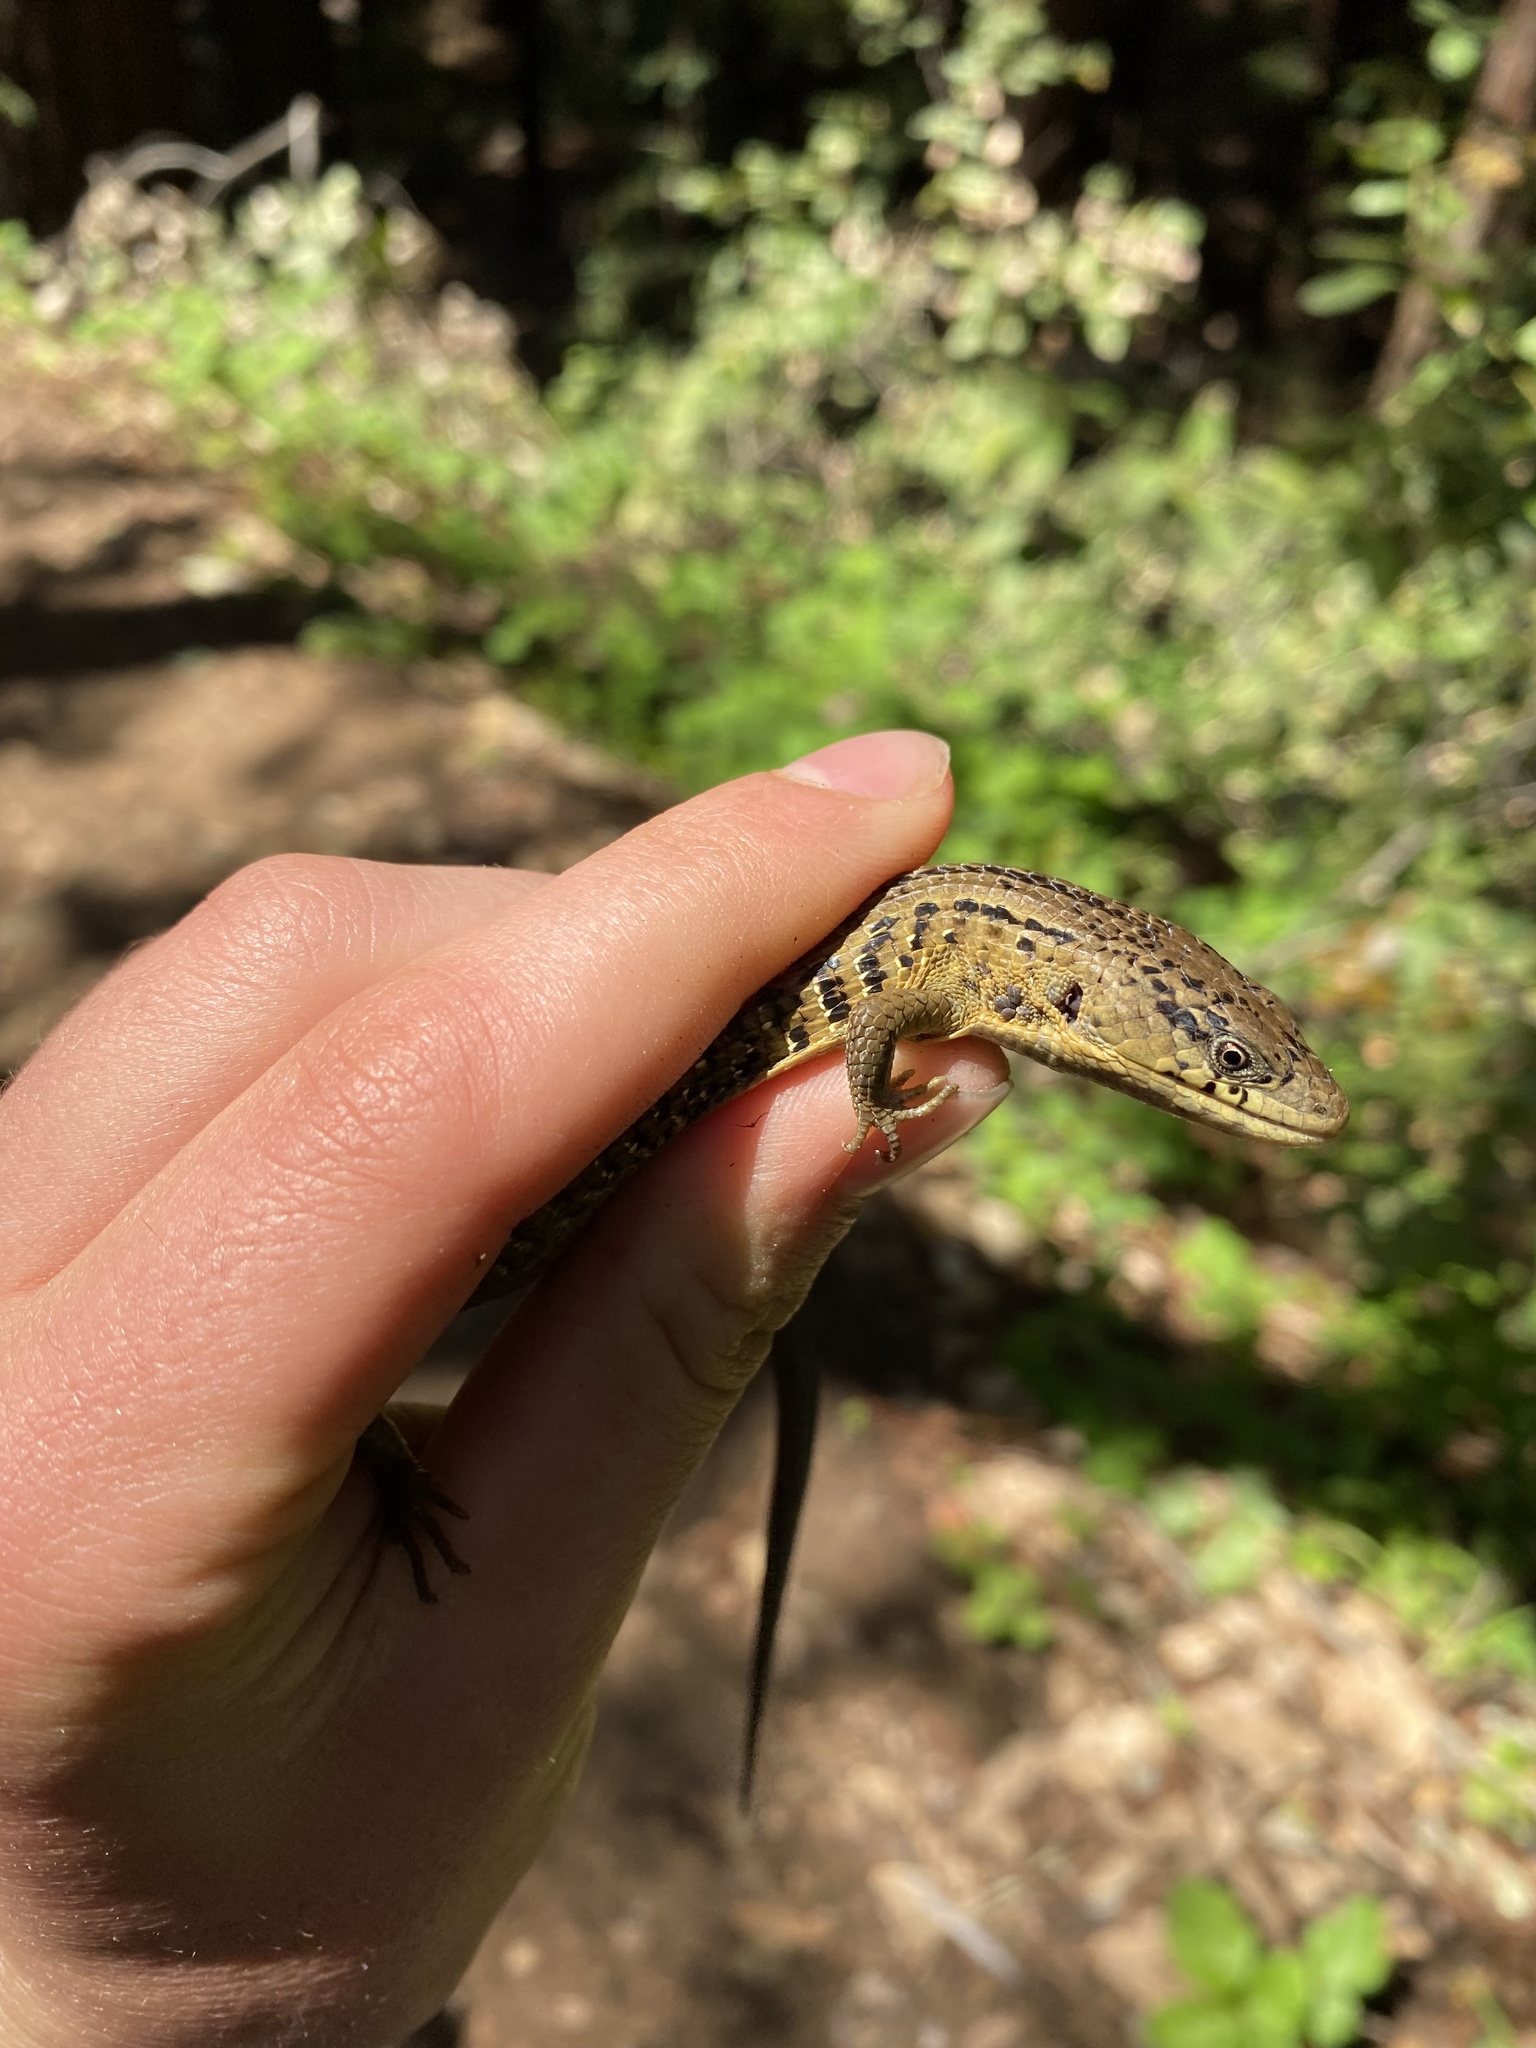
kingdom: Animalia
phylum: Chordata
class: Squamata
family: Anguidae
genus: Elgaria
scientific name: Elgaria coerulea
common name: Northern alligator lizard
